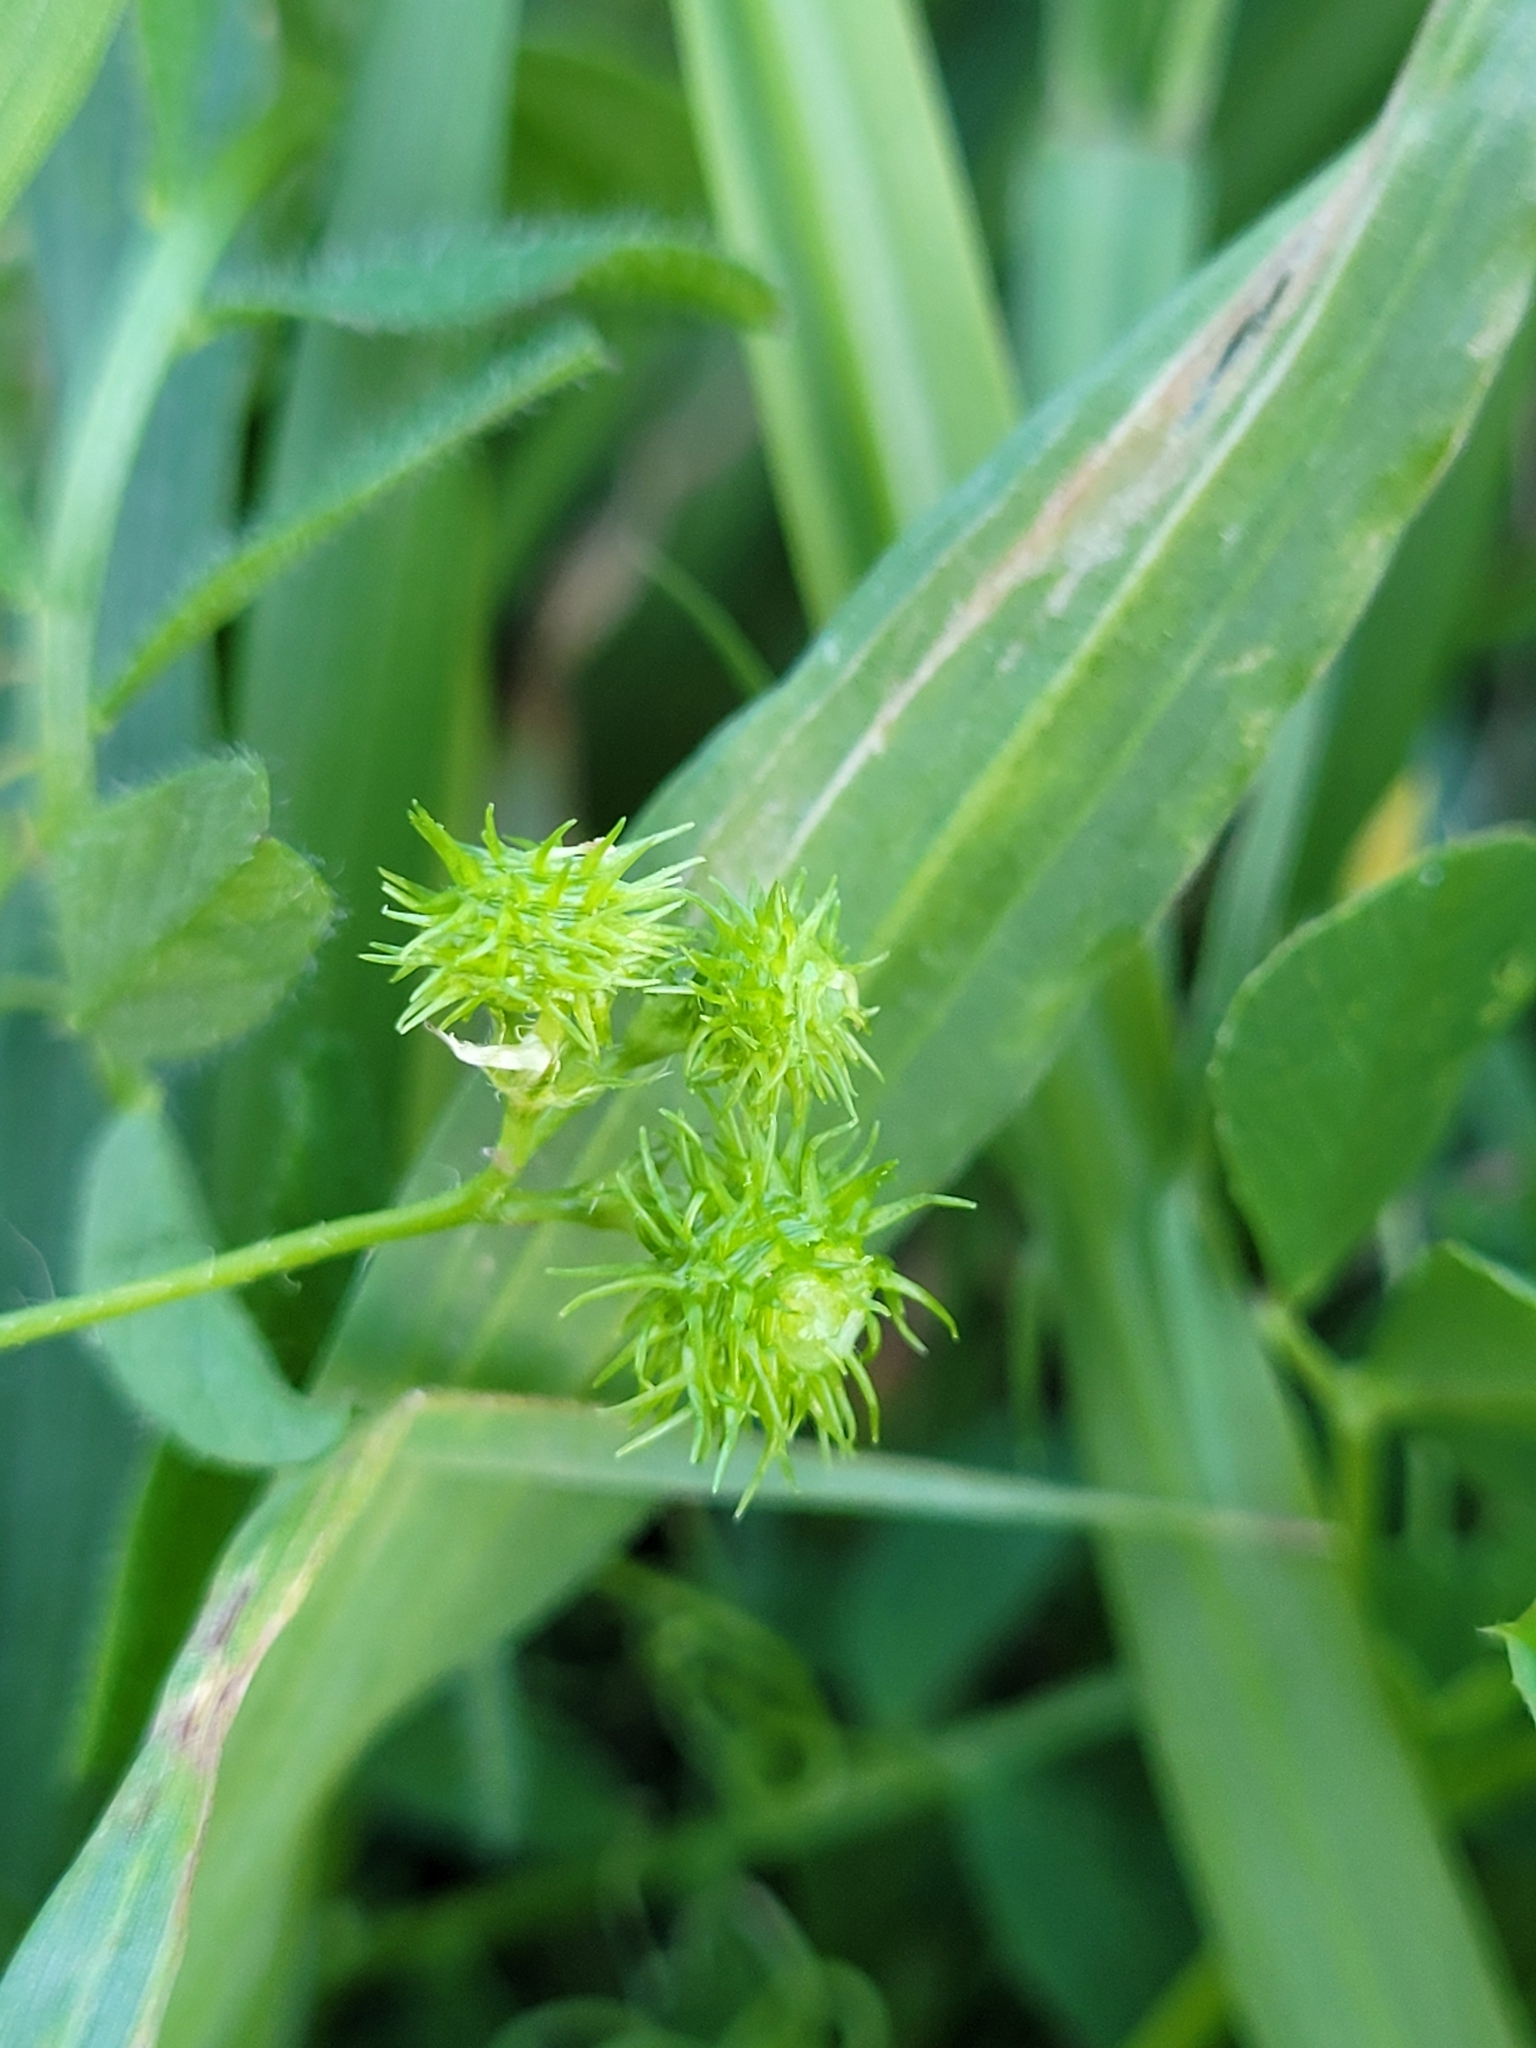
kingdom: Plantae
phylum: Tracheophyta
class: Magnoliopsida
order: Fabales
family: Fabaceae
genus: Medicago
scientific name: Medicago arabica
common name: Spotted medick
